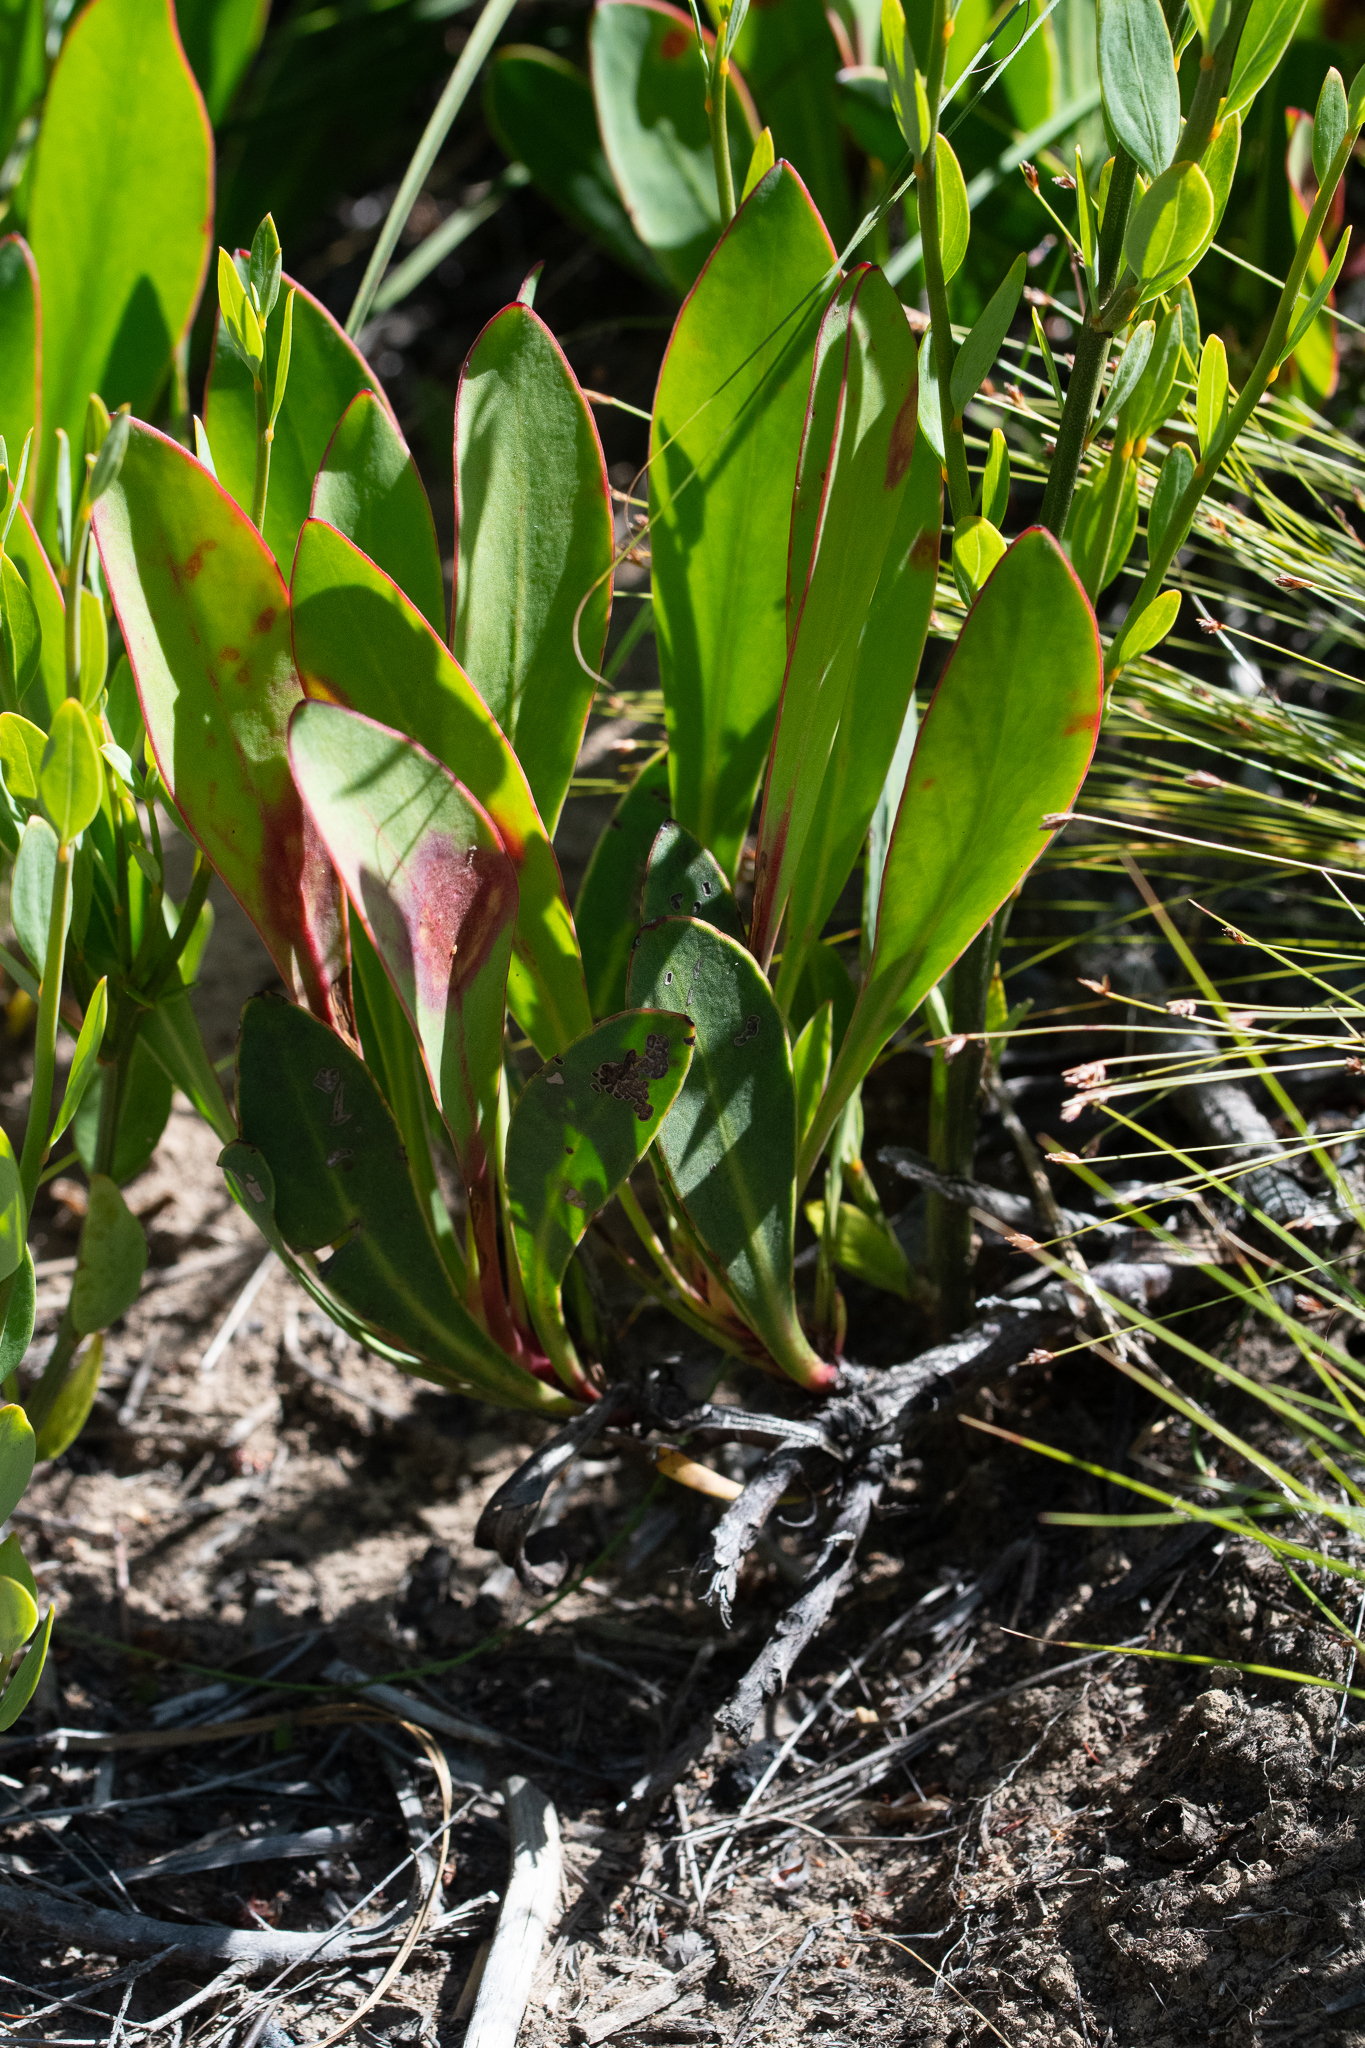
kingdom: Plantae
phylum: Tracheophyta
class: Magnoliopsida
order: Proteales
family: Proteaceae
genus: Protea
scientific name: Protea acaulos
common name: Common ground sugarbush
